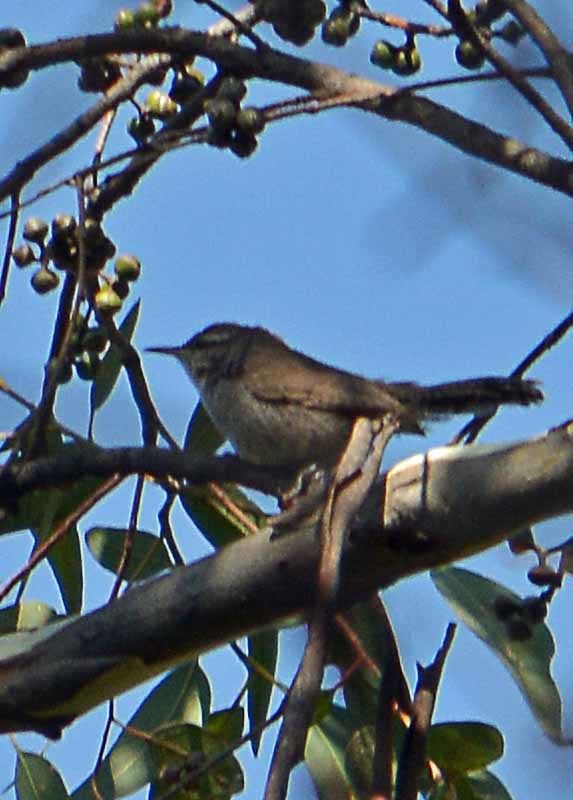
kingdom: Animalia
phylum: Chordata
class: Aves
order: Passeriformes
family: Troglodytidae
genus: Thryomanes
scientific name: Thryomanes bewickii
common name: Bewick's wren
